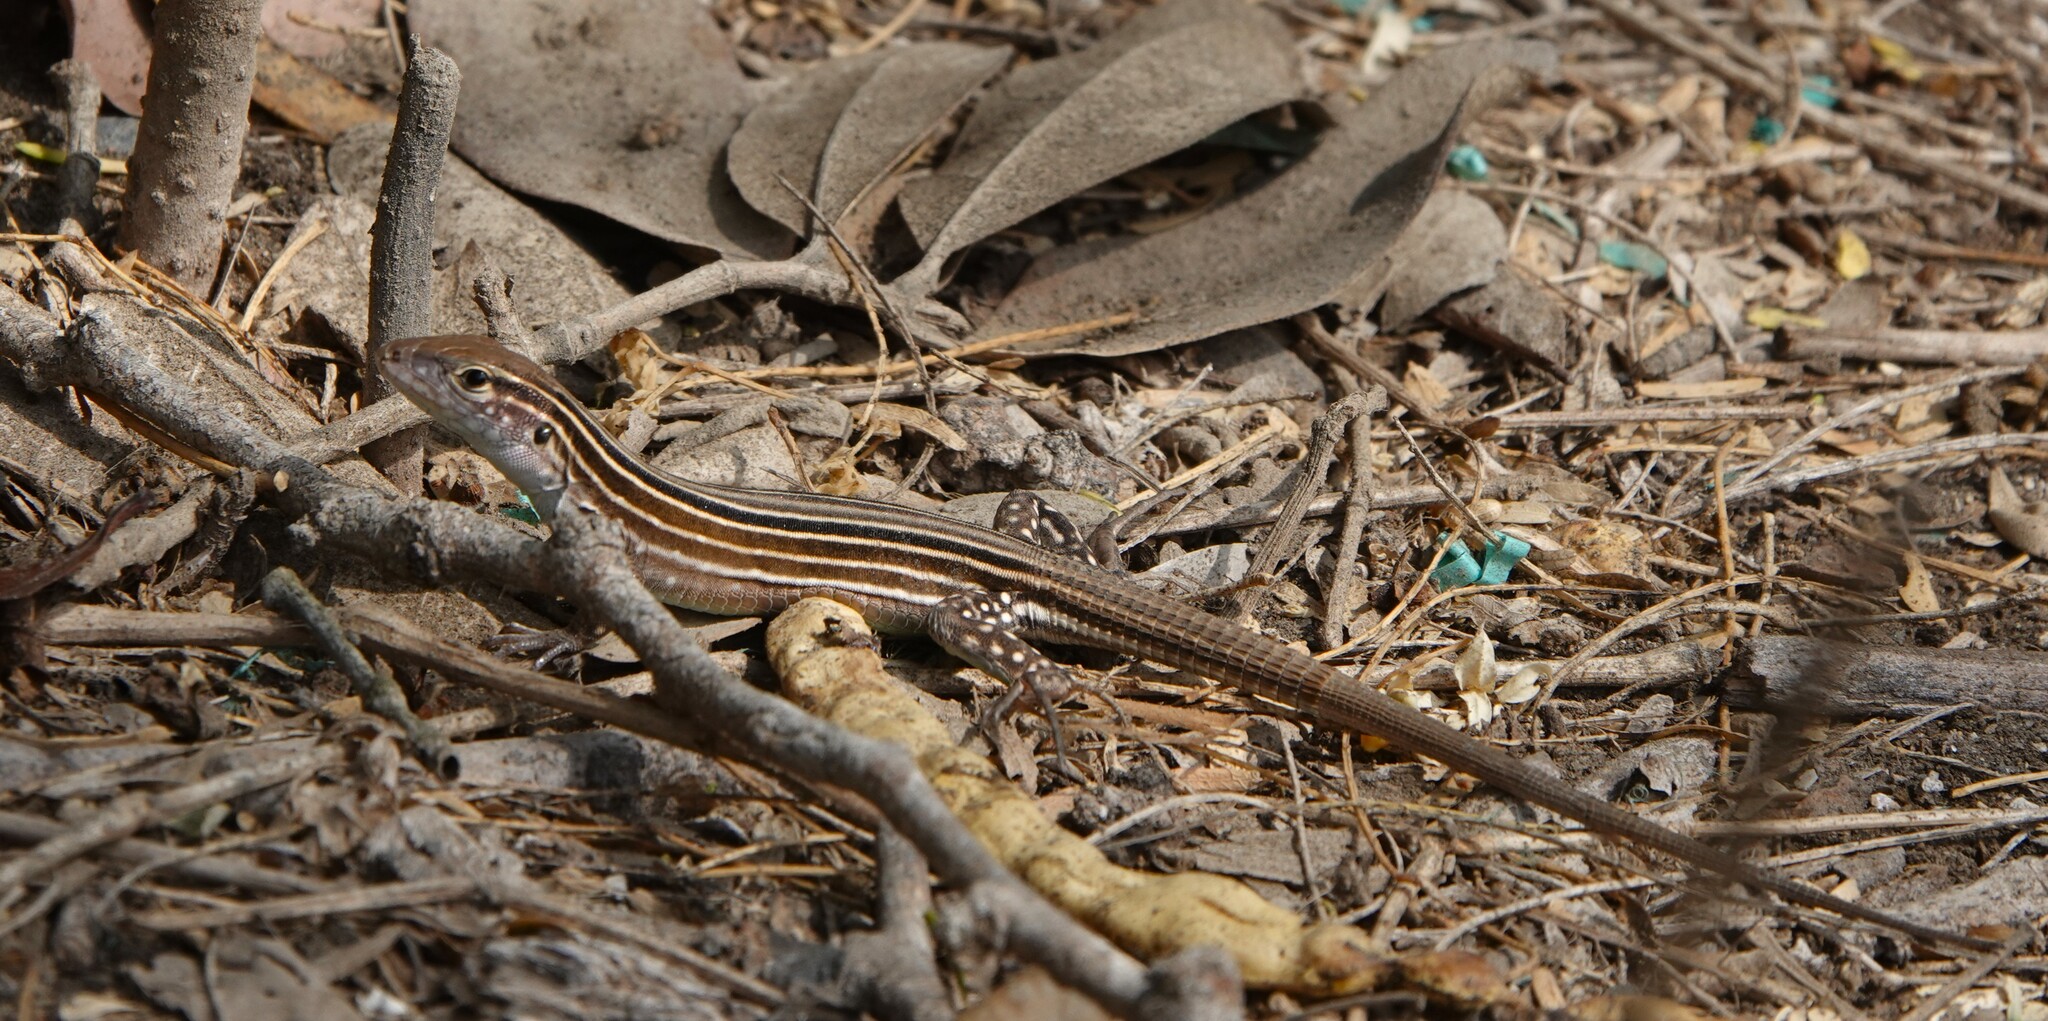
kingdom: Animalia
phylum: Chordata
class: Squamata
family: Teiidae
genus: Cnemidophorus
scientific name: Cnemidophorus gaigei
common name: Gaige’s rainbow lizard
